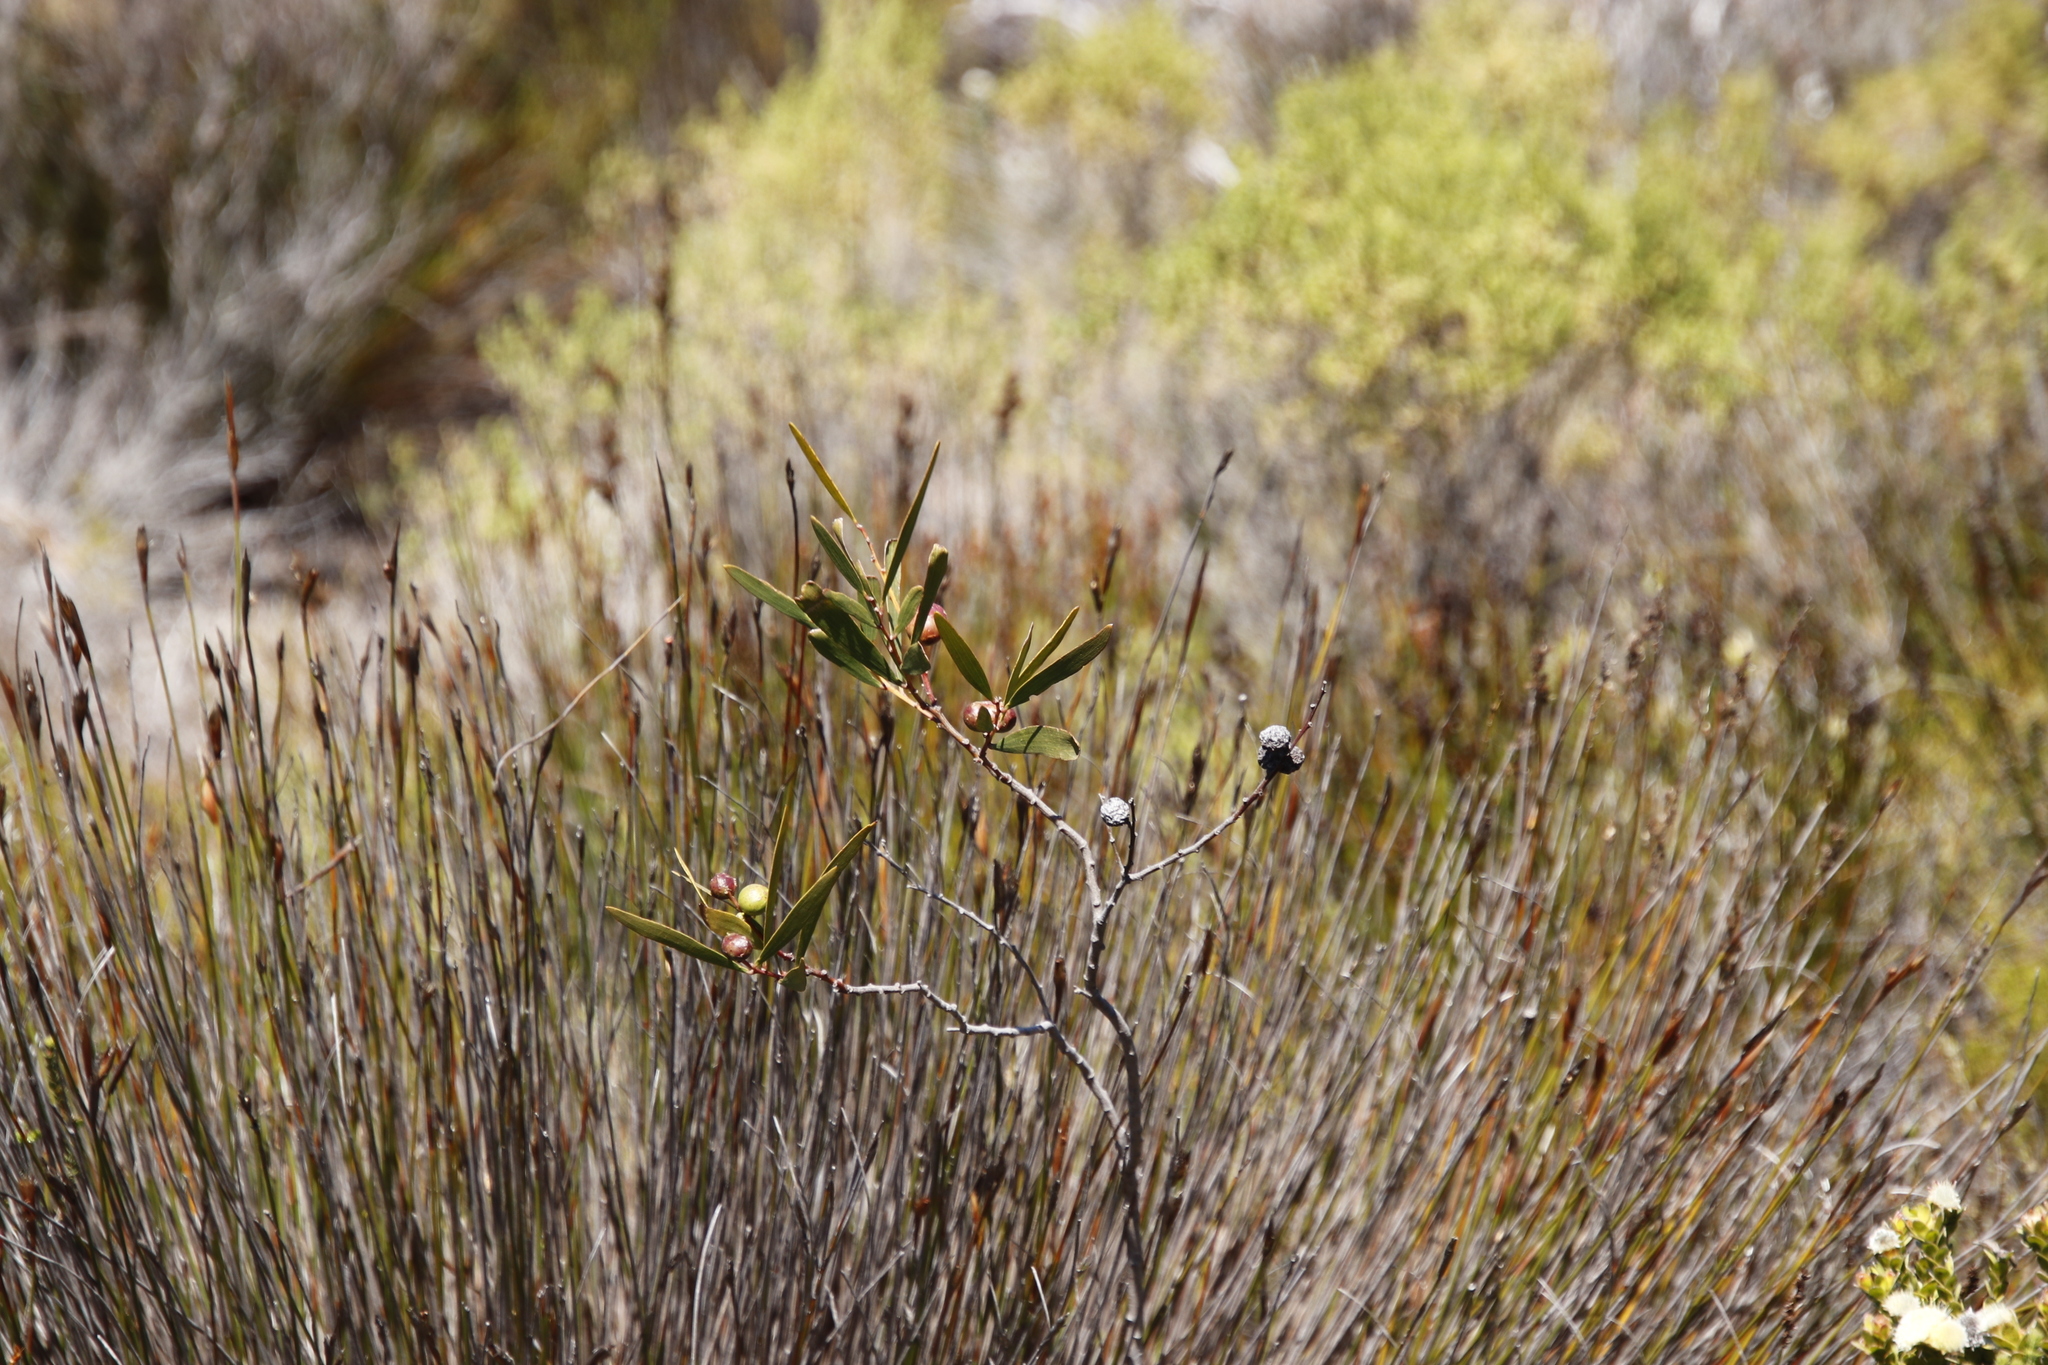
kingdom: Plantae
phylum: Tracheophyta
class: Magnoliopsida
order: Fabales
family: Fabaceae
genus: Acacia
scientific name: Acacia longifolia
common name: Sydney golden wattle
